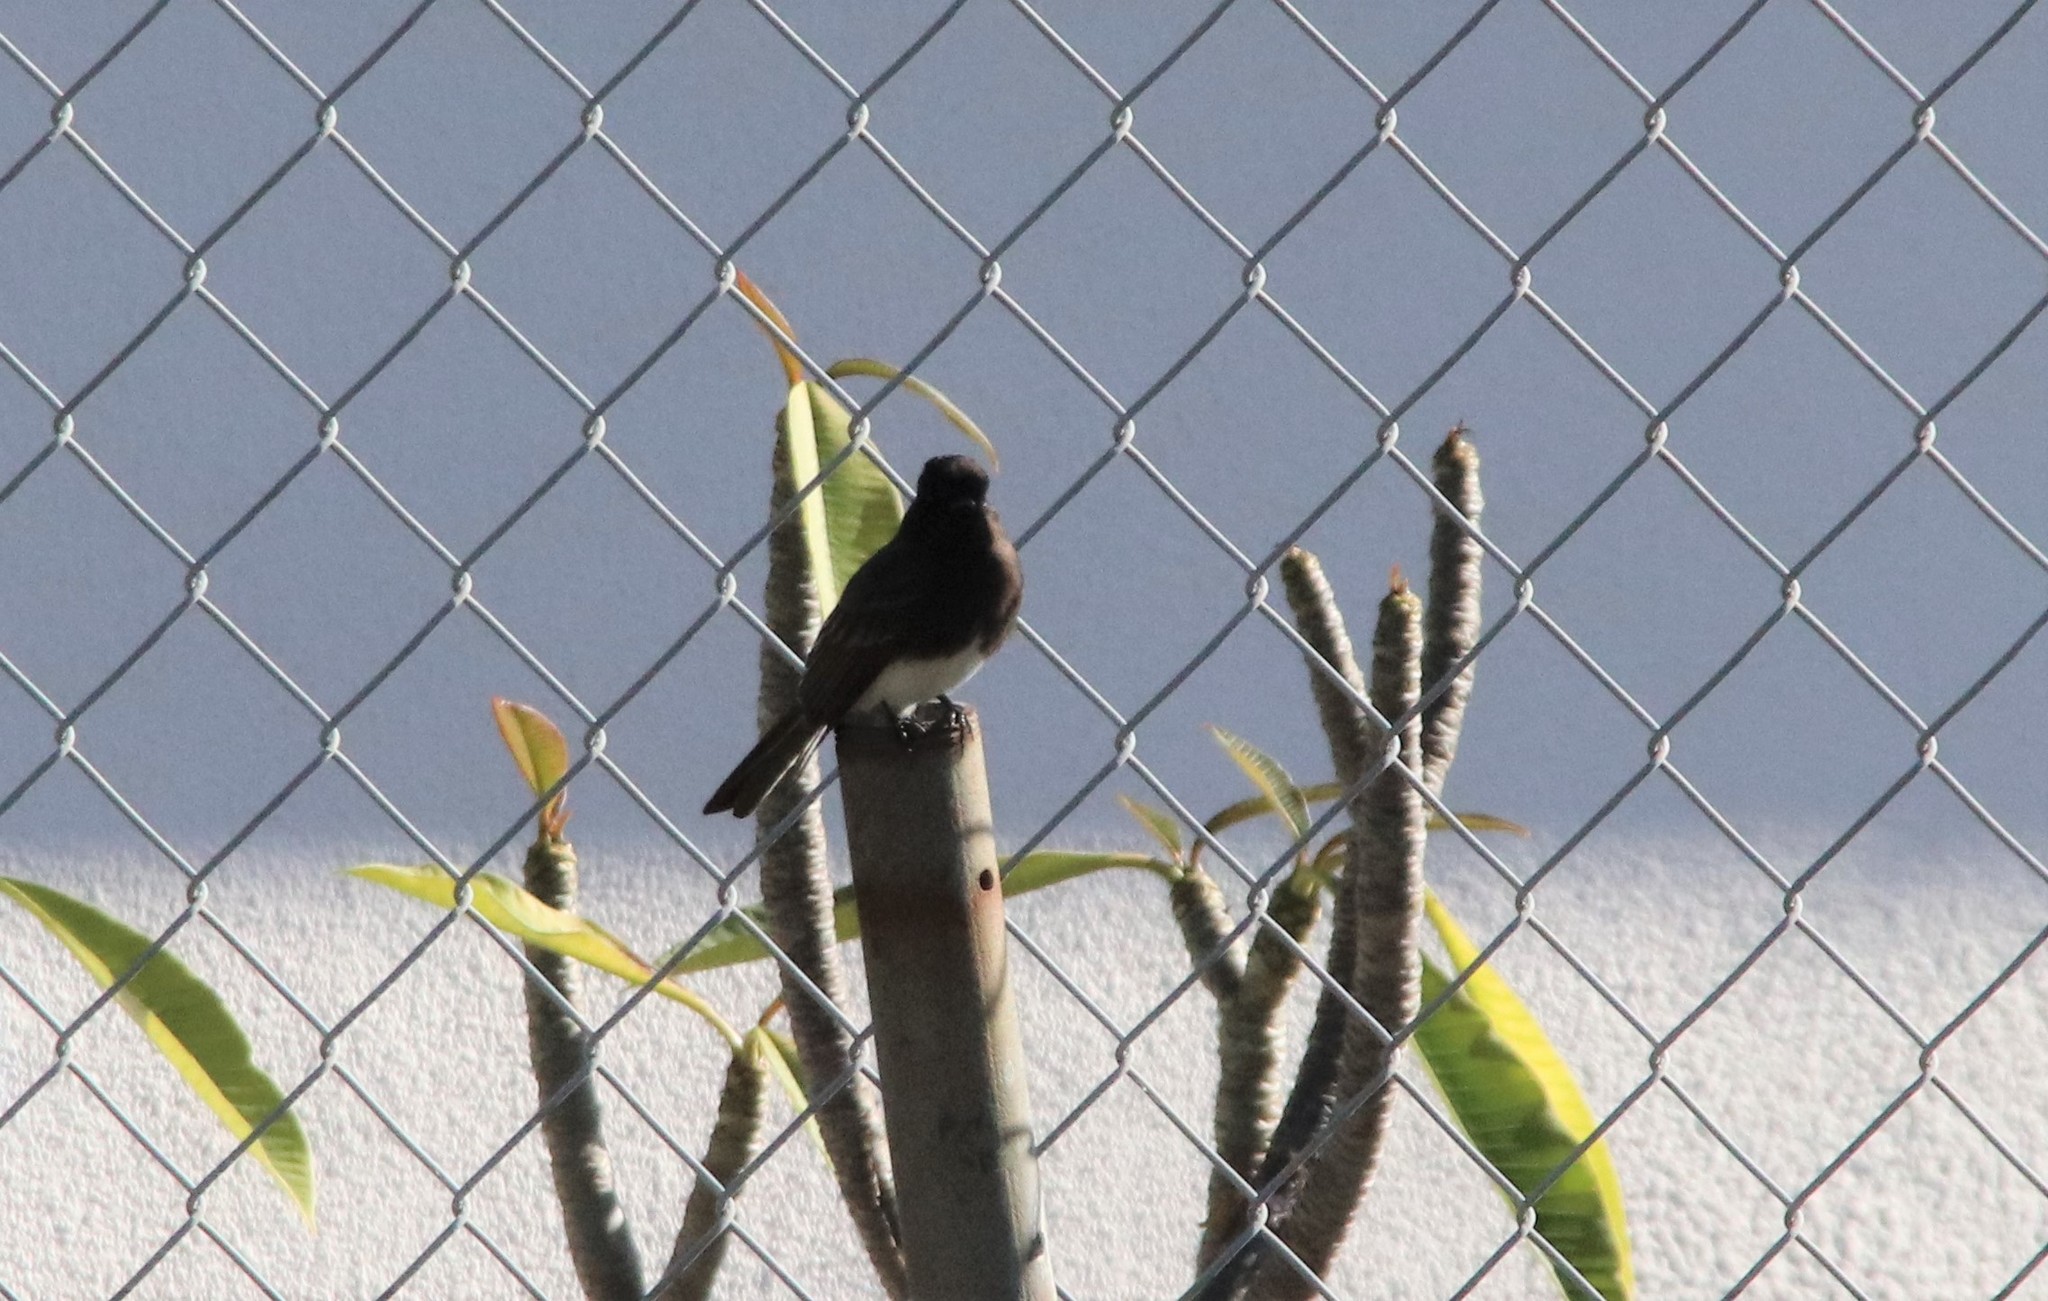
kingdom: Animalia
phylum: Chordata
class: Aves
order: Passeriformes
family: Tyrannidae
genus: Sayornis
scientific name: Sayornis nigricans
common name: Black phoebe
